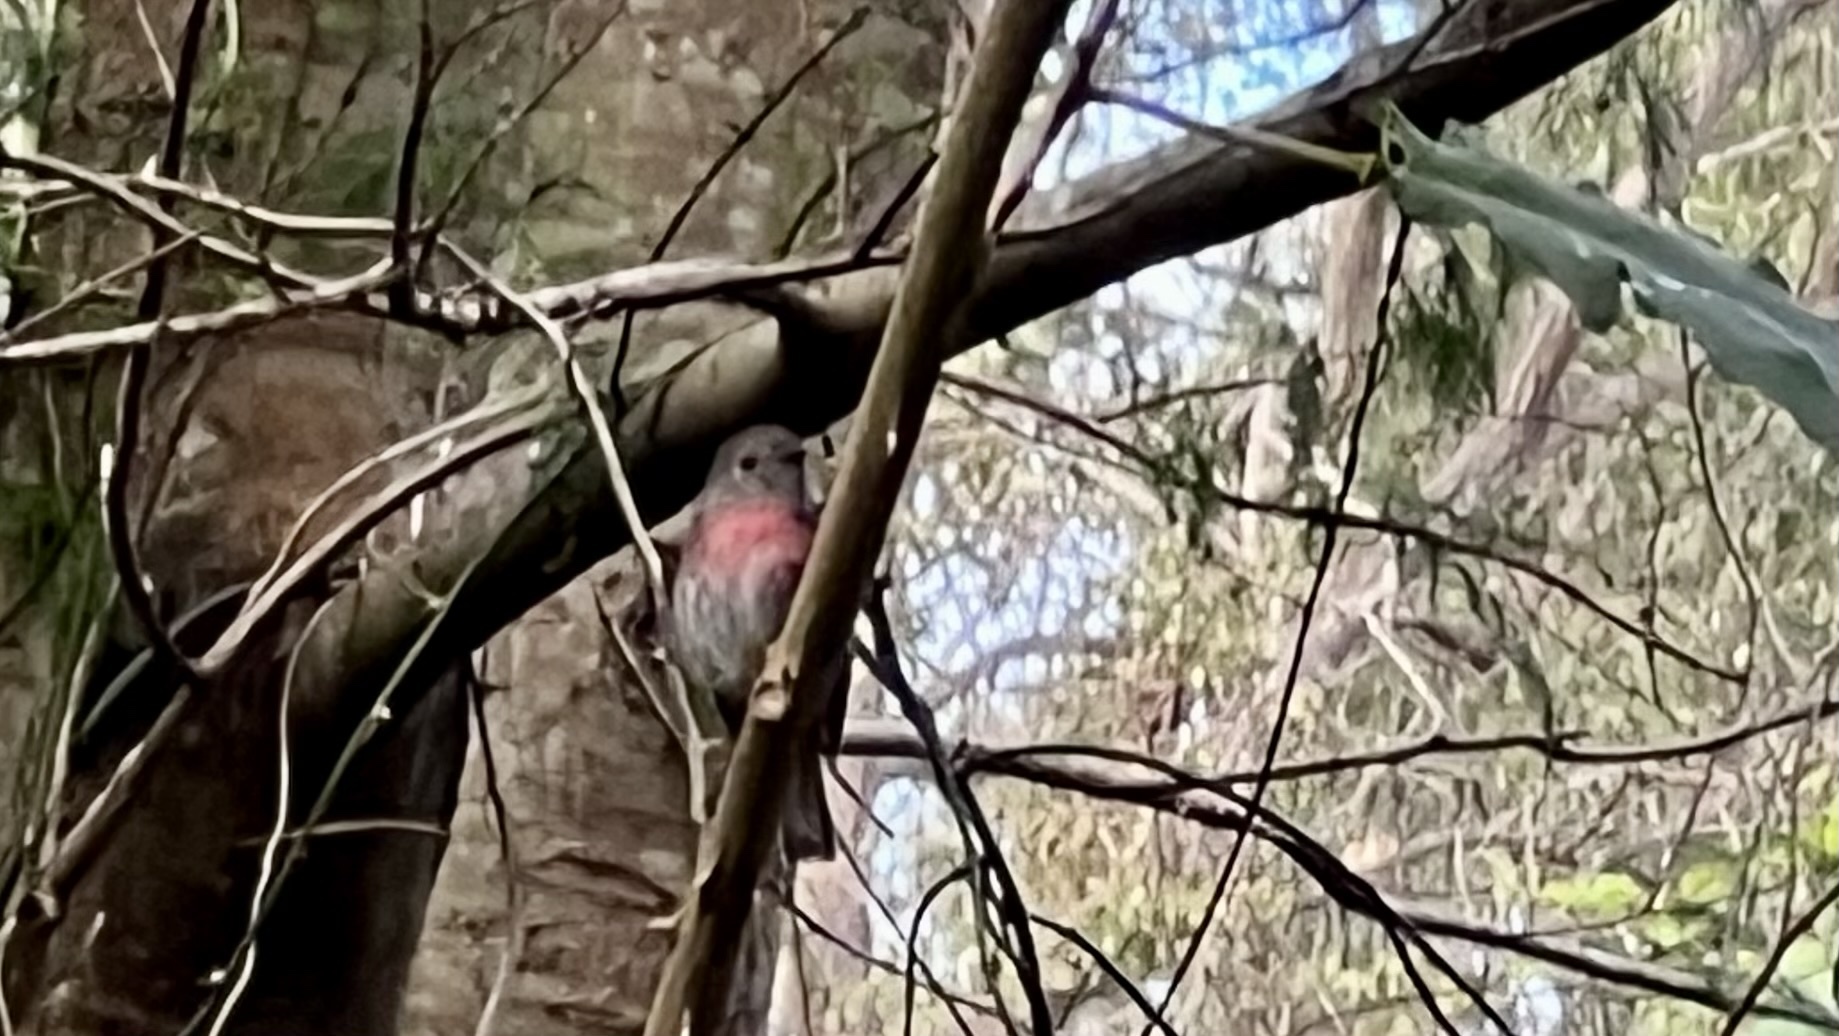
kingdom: Animalia
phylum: Chordata
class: Aves
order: Passeriformes
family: Petroicidae
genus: Petroica
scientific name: Petroica rosea
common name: Rose robin
